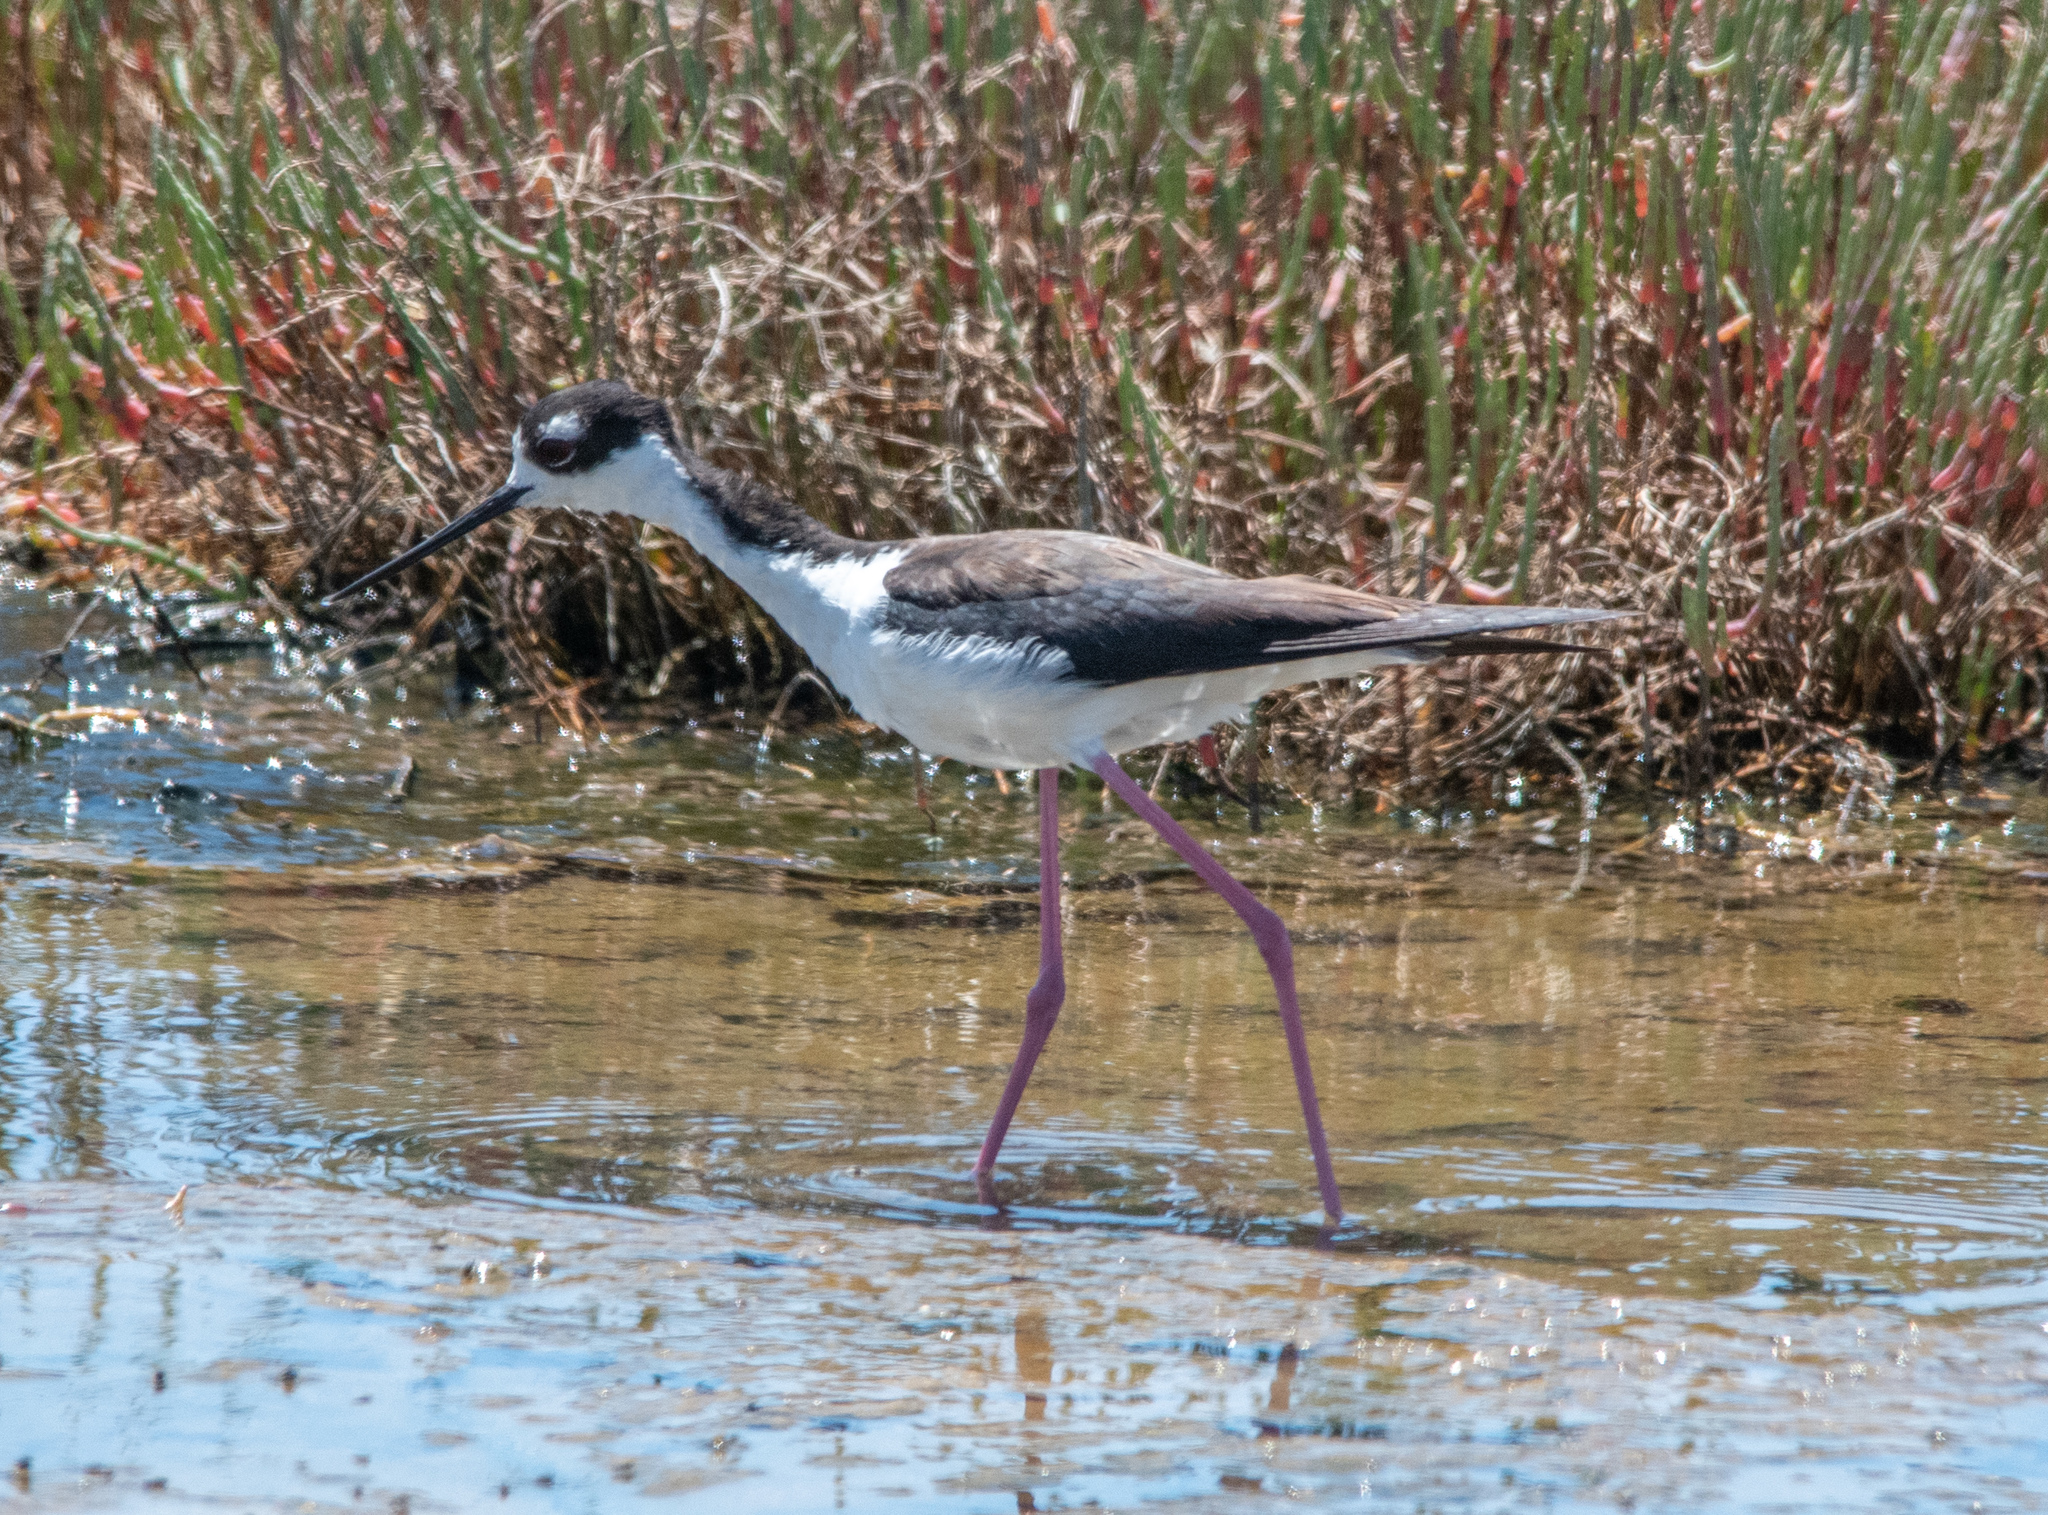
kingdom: Animalia
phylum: Chordata
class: Aves
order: Charadriiformes
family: Recurvirostridae
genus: Himantopus
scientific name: Himantopus mexicanus
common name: Black-necked stilt
